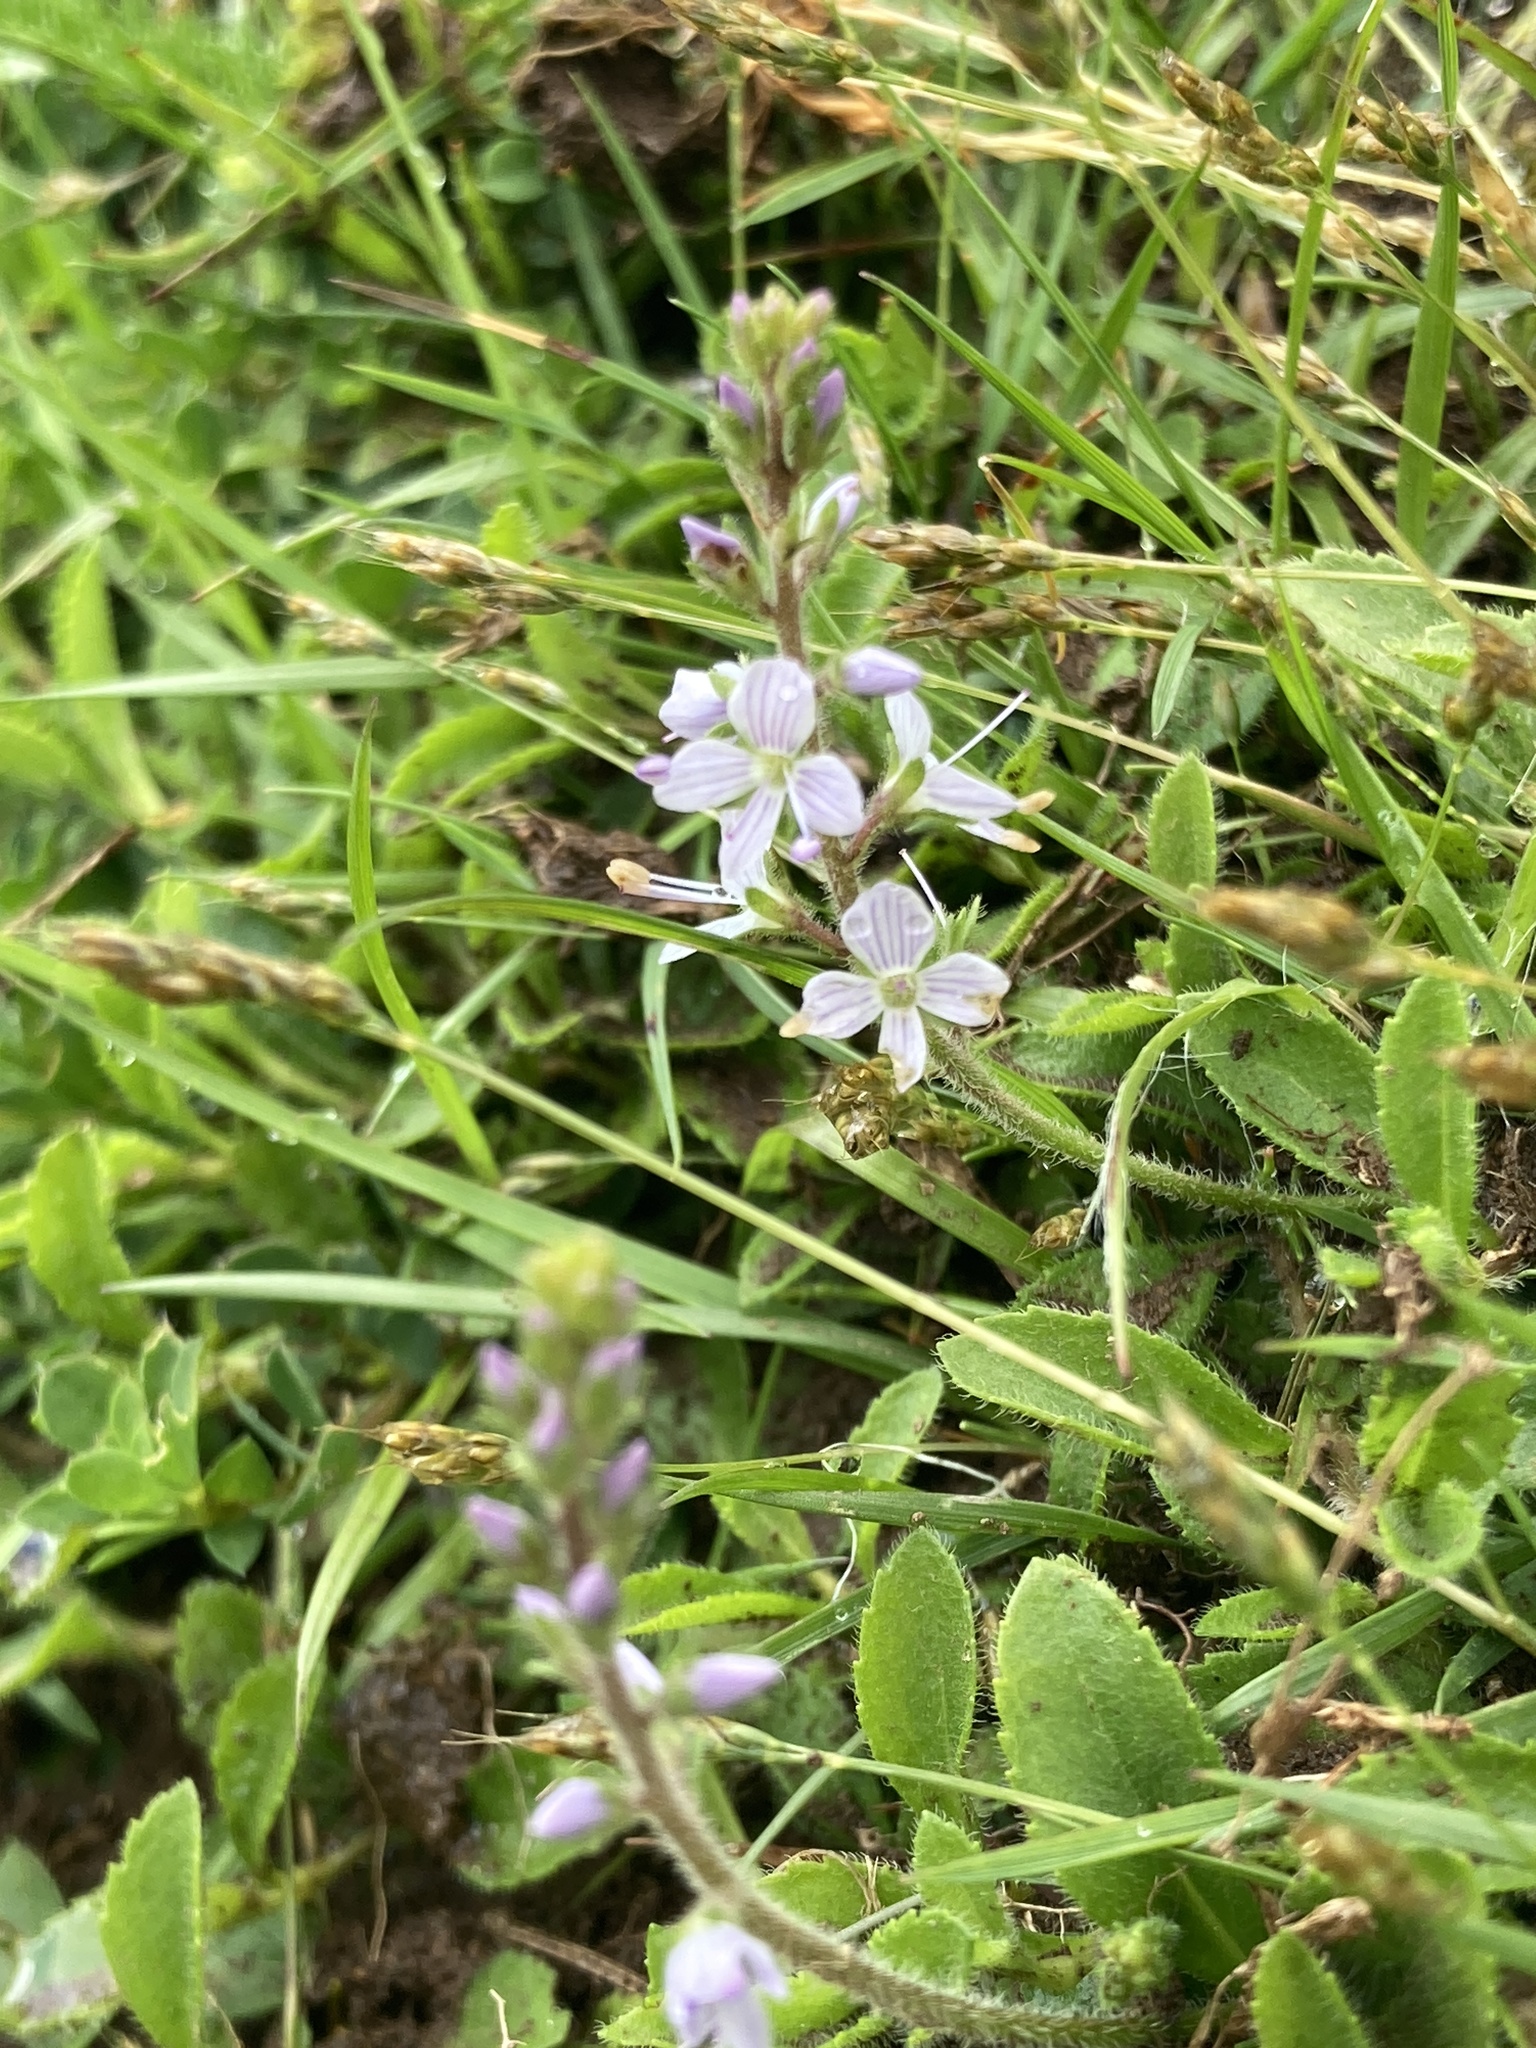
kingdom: Plantae
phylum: Tracheophyta
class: Magnoliopsida
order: Lamiales
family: Plantaginaceae
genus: Veronica
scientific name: Veronica officinalis
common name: Common speedwell
